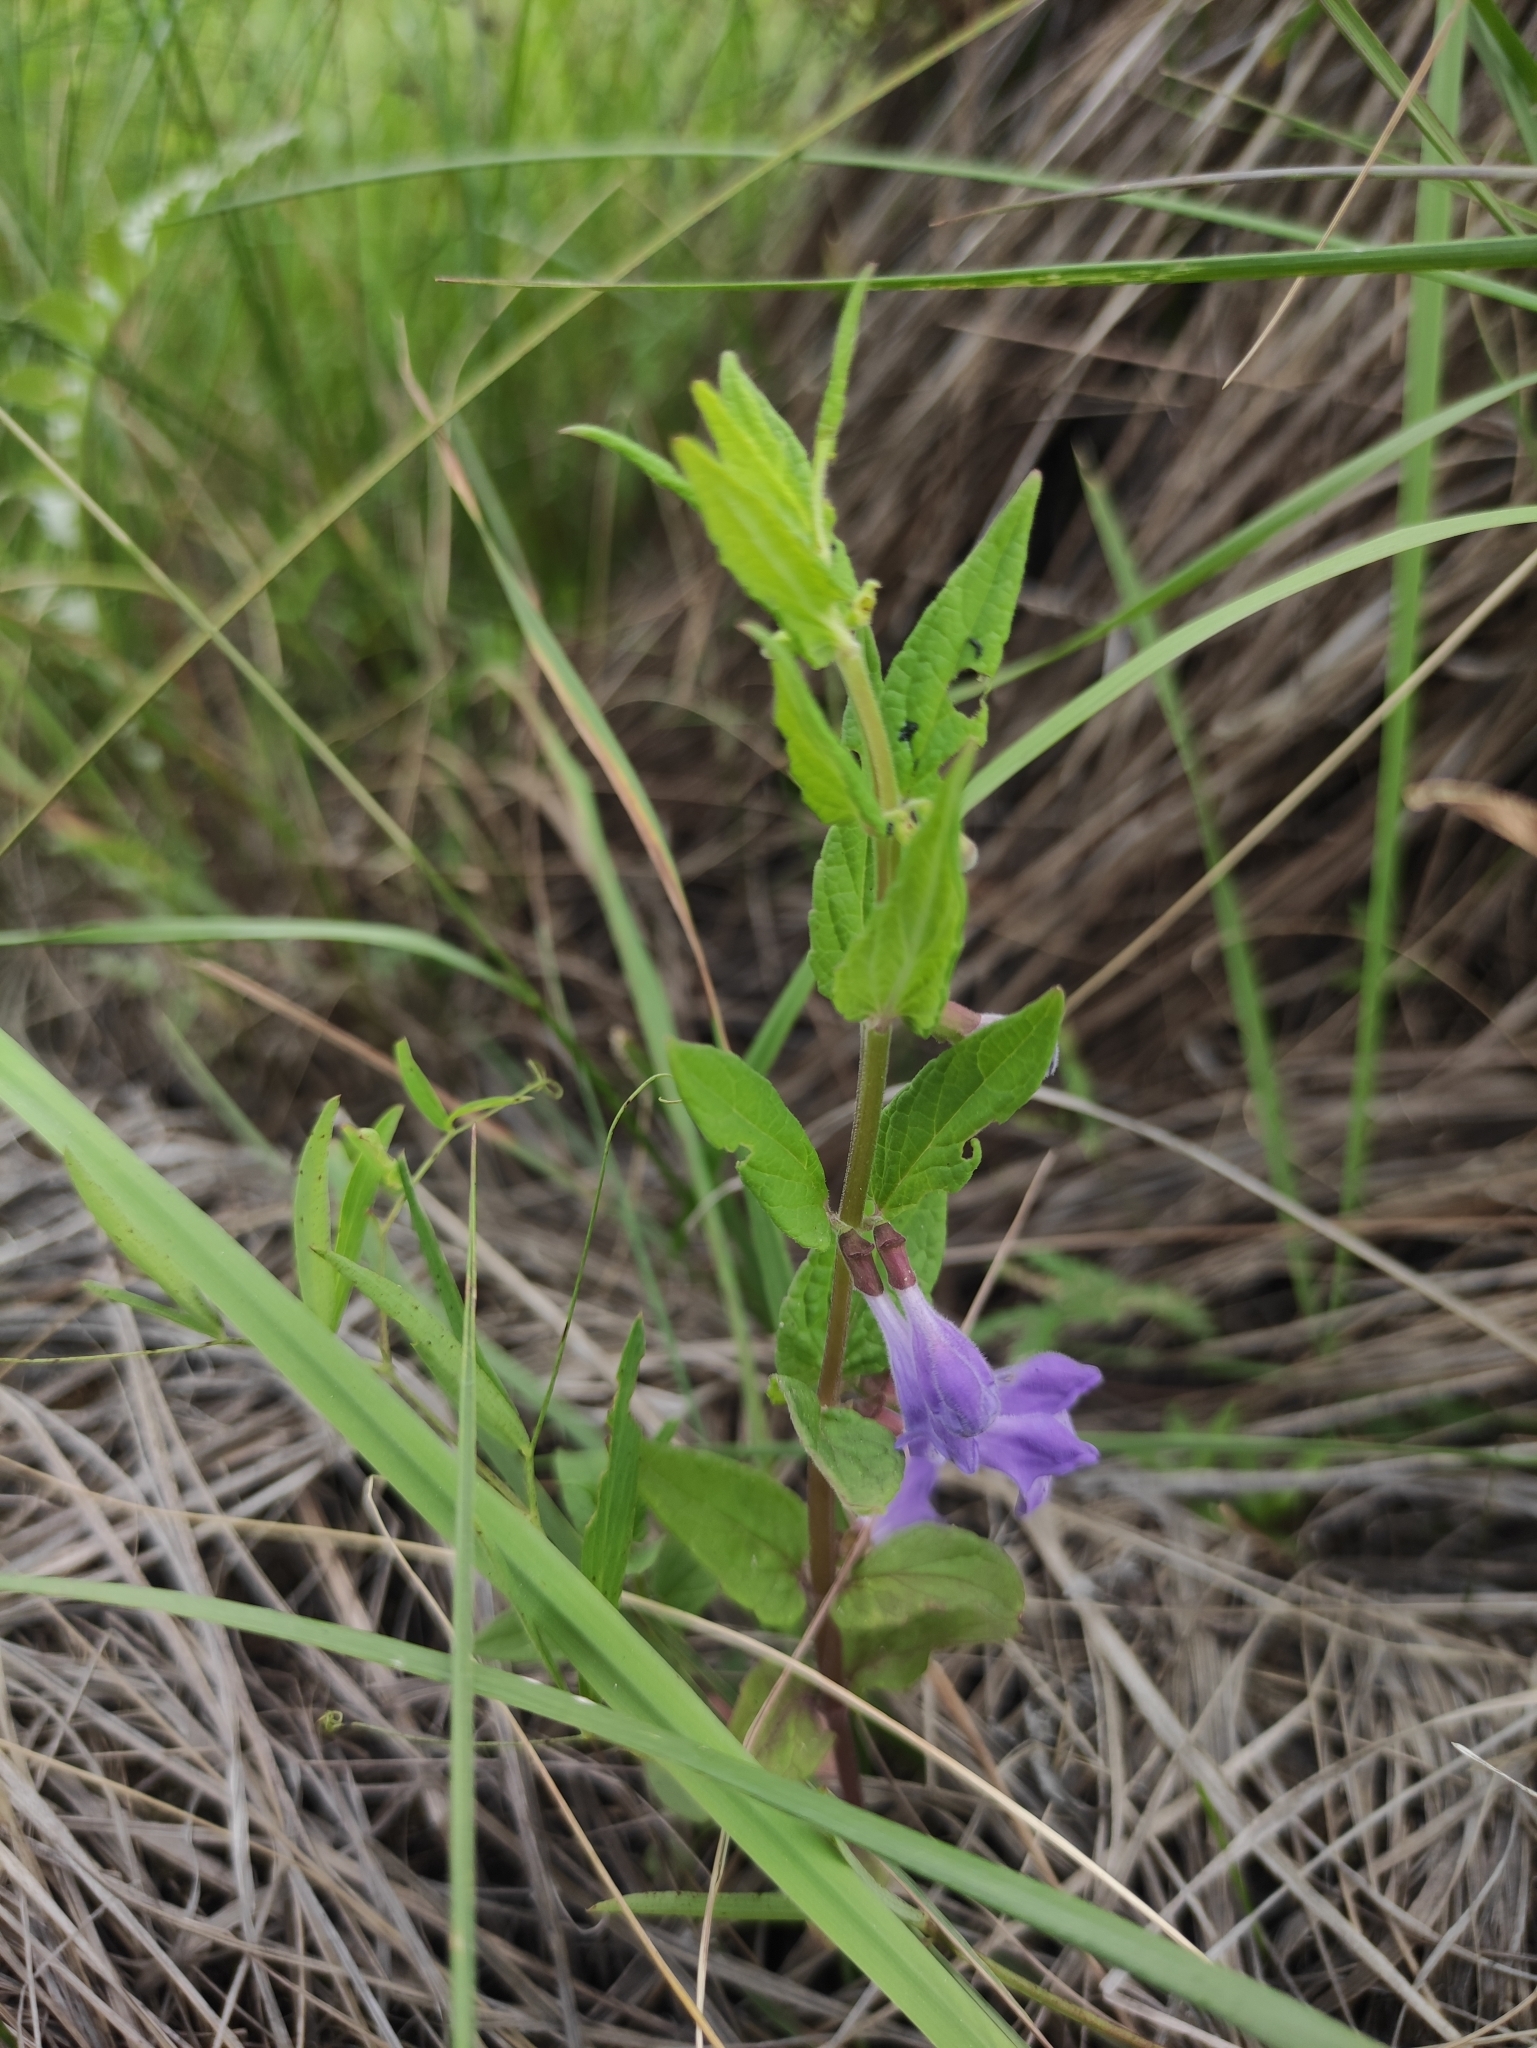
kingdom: Plantae
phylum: Tracheophyta
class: Magnoliopsida
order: Lamiales
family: Lamiaceae
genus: Scutellaria
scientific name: Scutellaria galericulata
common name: Skullcap
